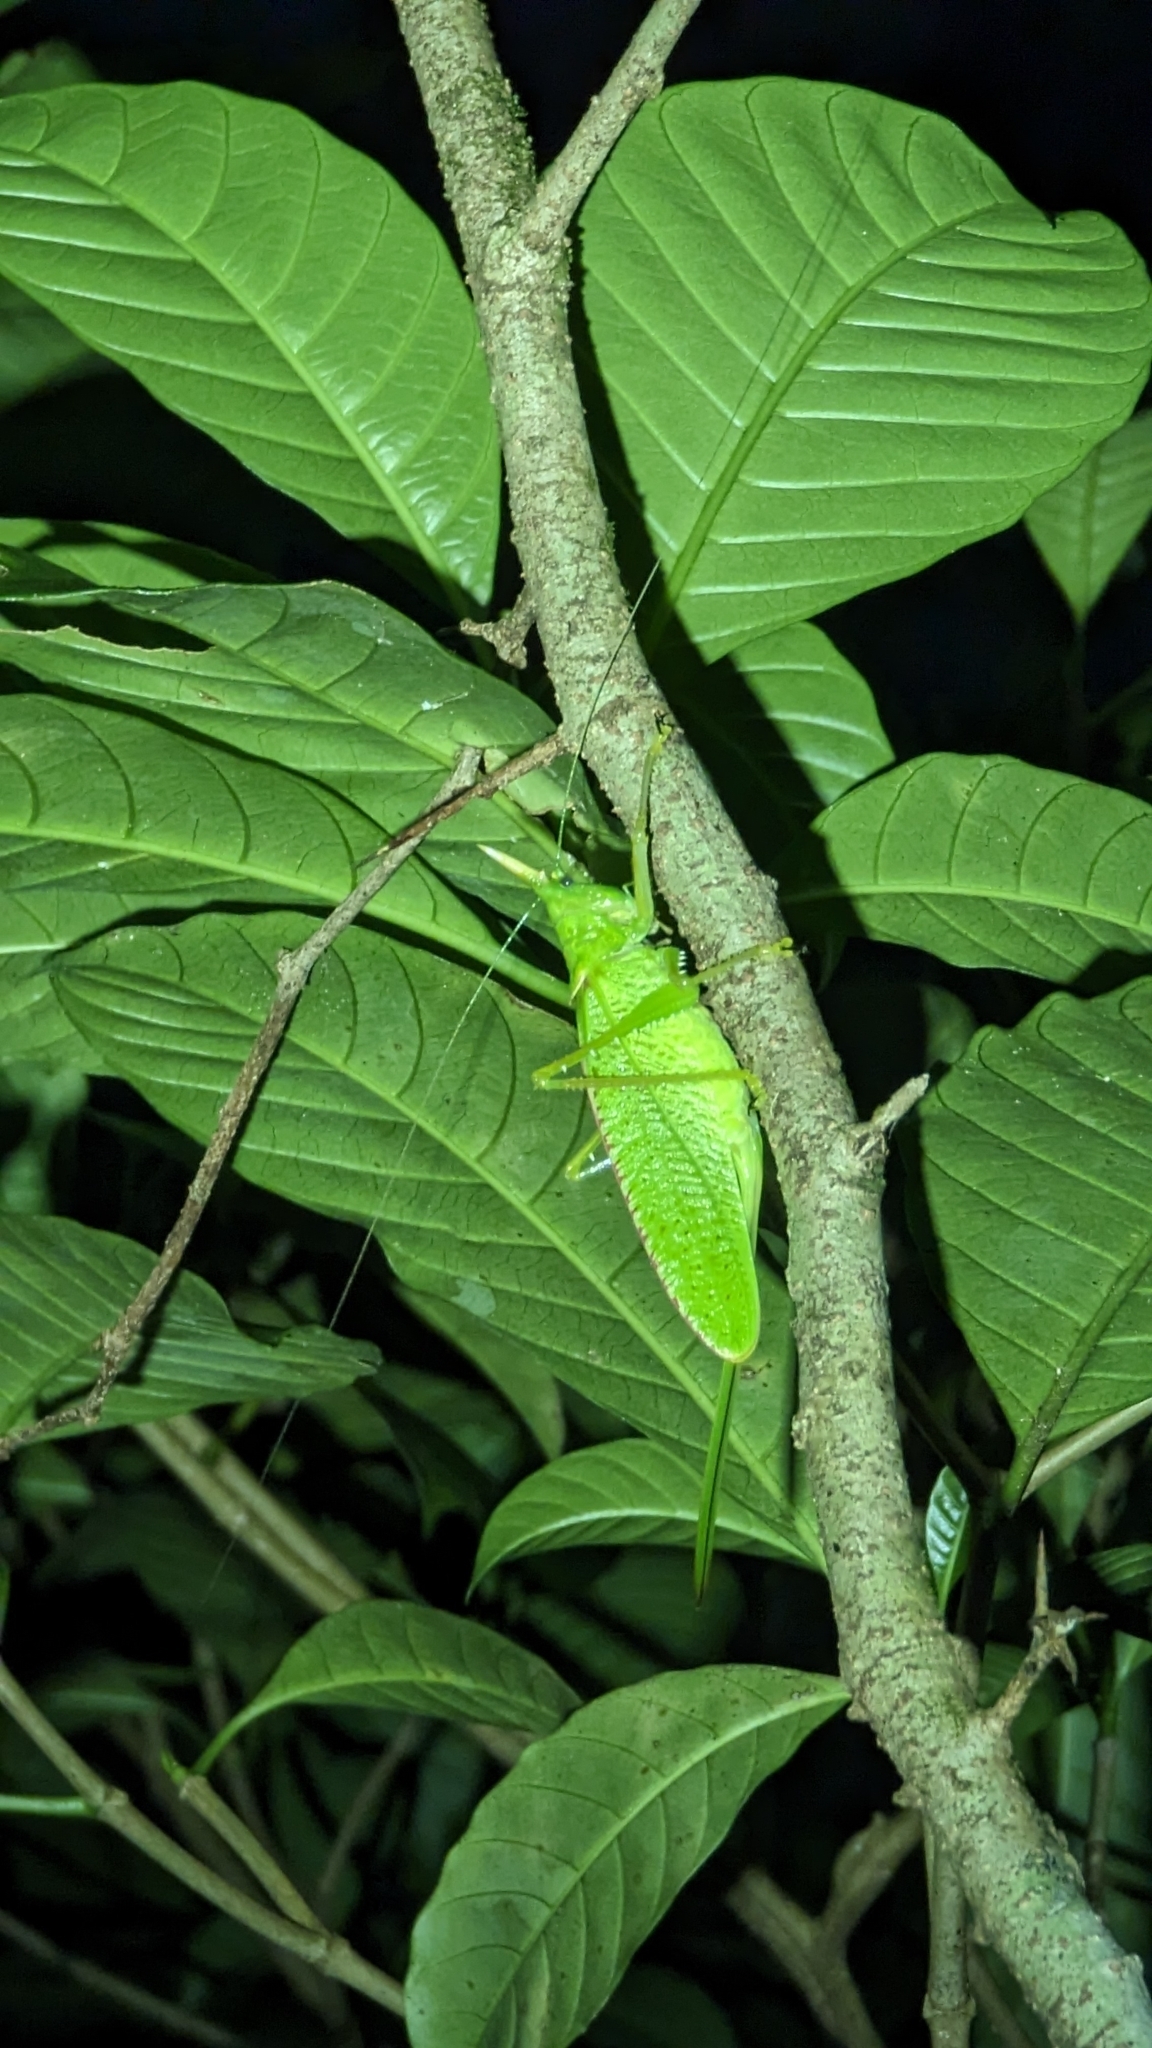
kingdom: Animalia
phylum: Arthropoda
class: Insecta
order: Orthoptera
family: Tettigoniidae
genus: Copiphora
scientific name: Copiphora rhinoceros
